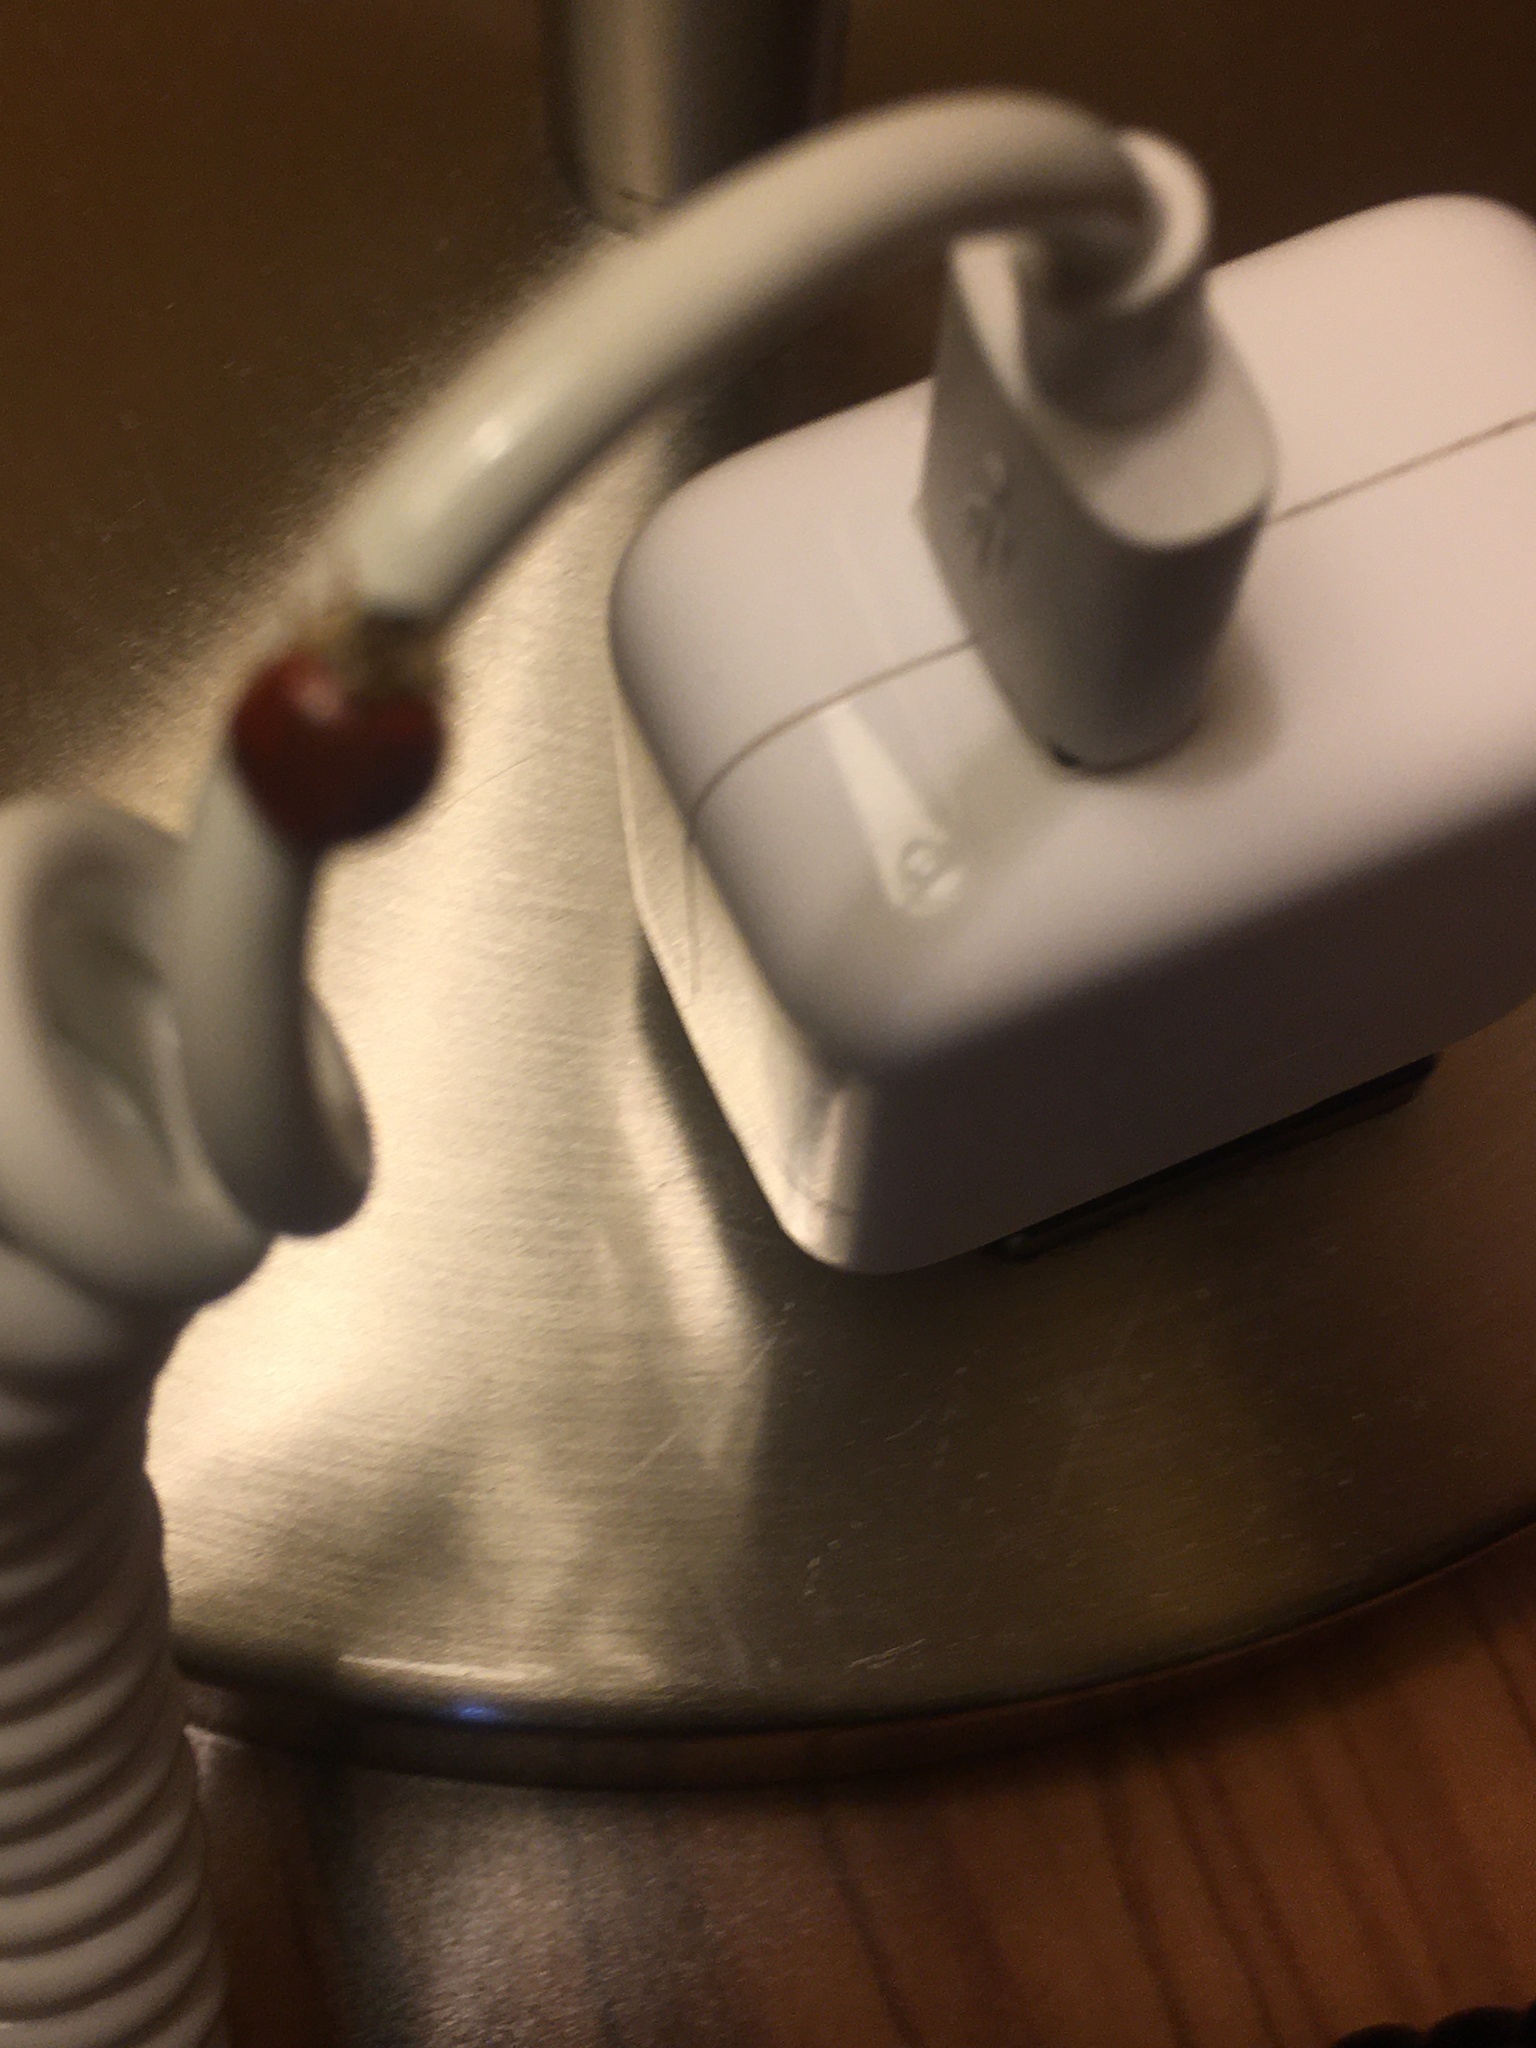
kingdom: Animalia
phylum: Arthropoda
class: Insecta
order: Coleoptera
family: Coccinellidae
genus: Harmonia
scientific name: Harmonia axyridis
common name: Harlequin ladybird
